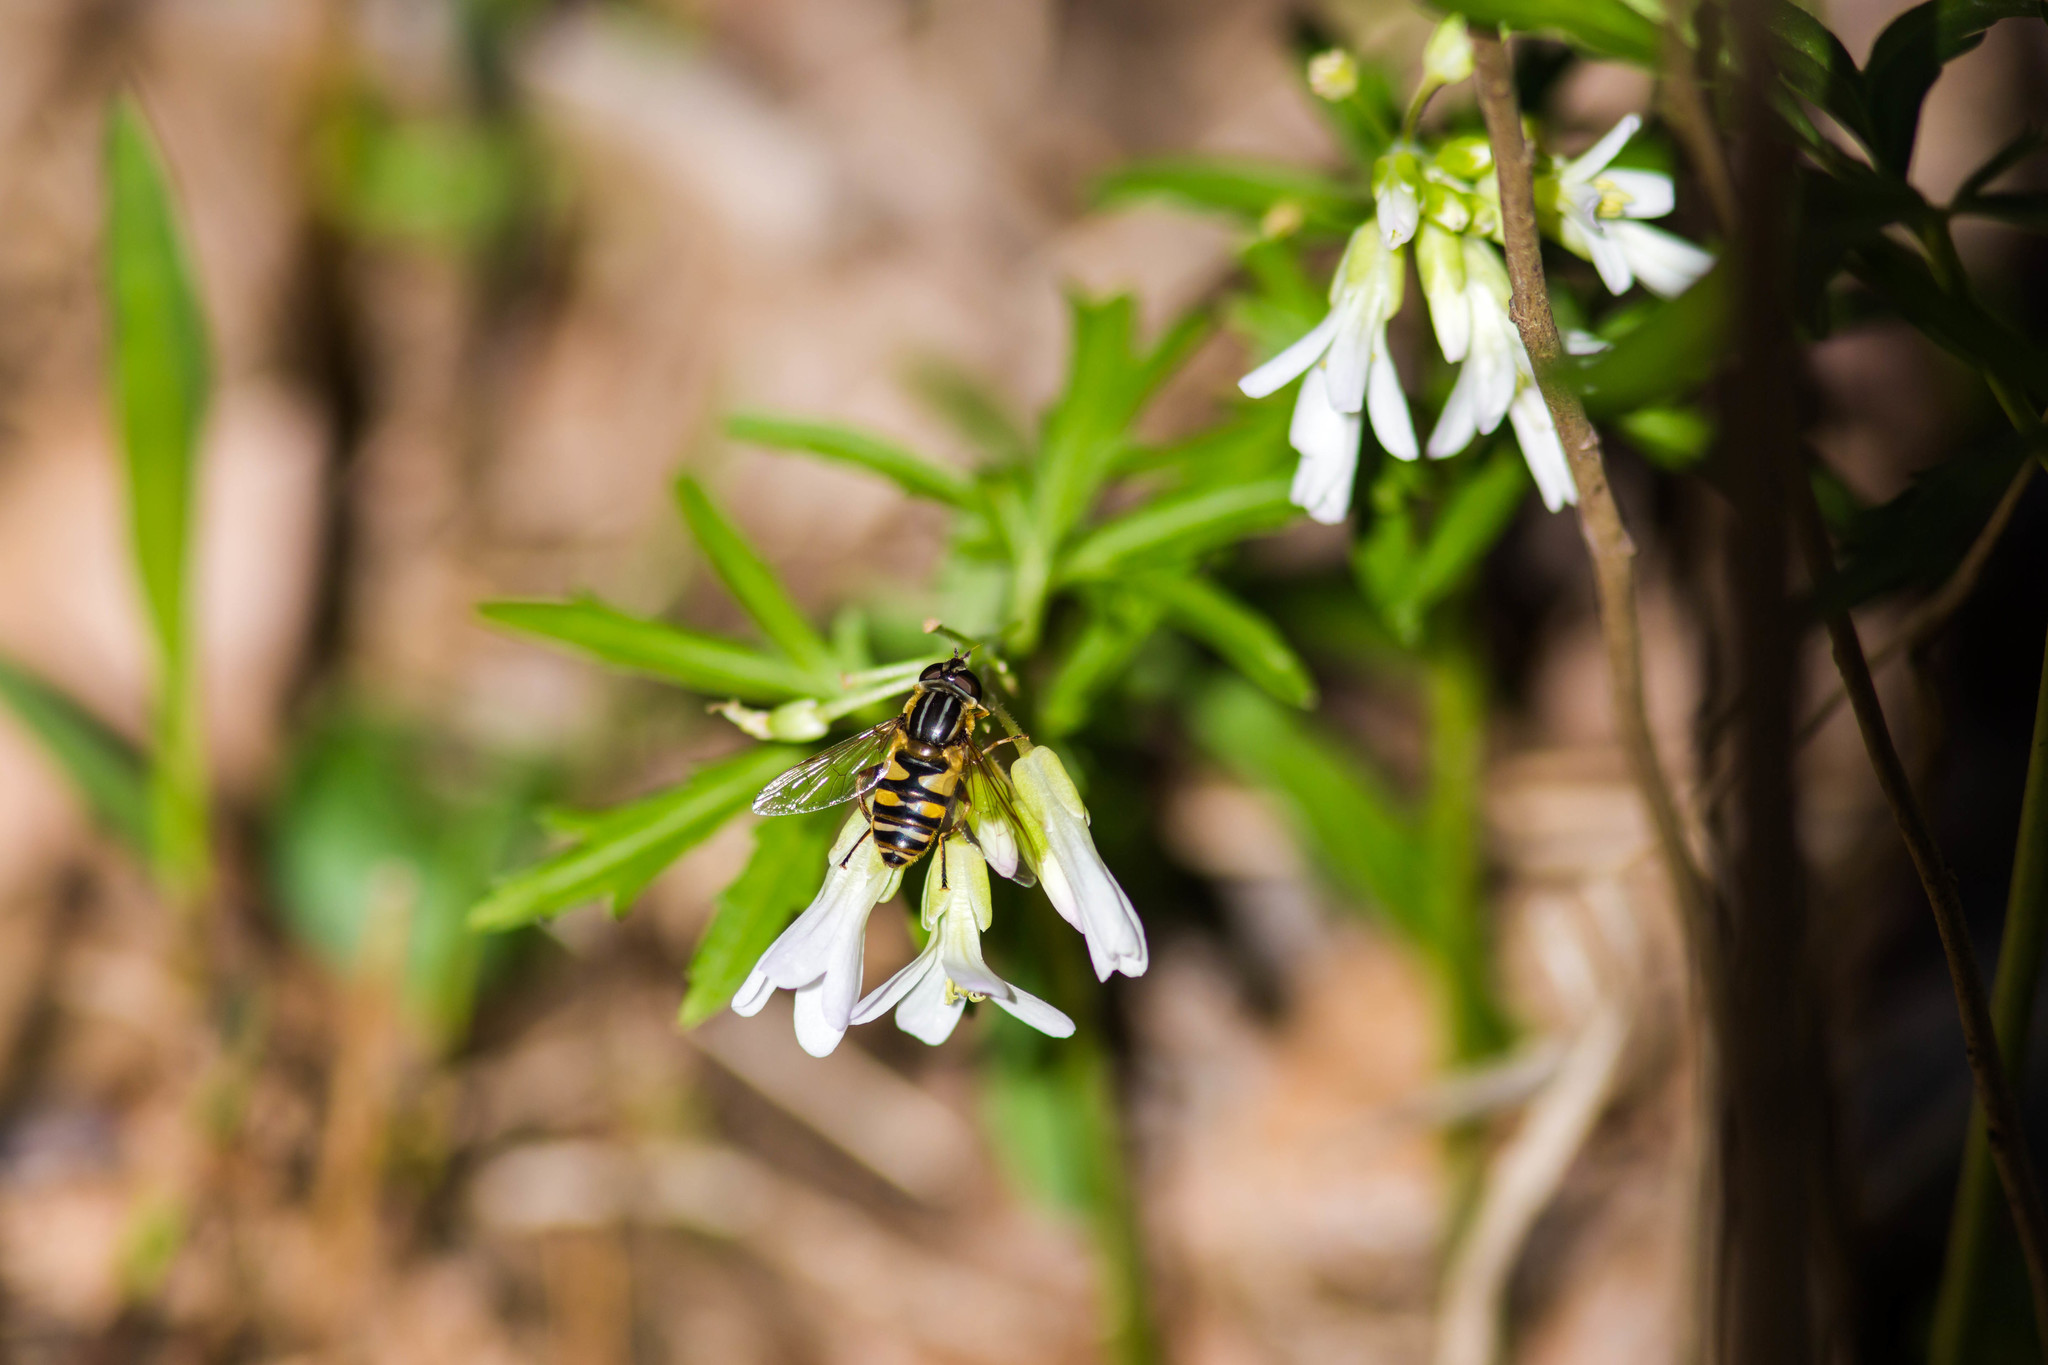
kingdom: Animalia
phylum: Arthropoda
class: Insecta
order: Diptera
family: Syrphidae
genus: Helophilus
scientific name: Helophilus fasciatus
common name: Narrow-headed marsh fly
